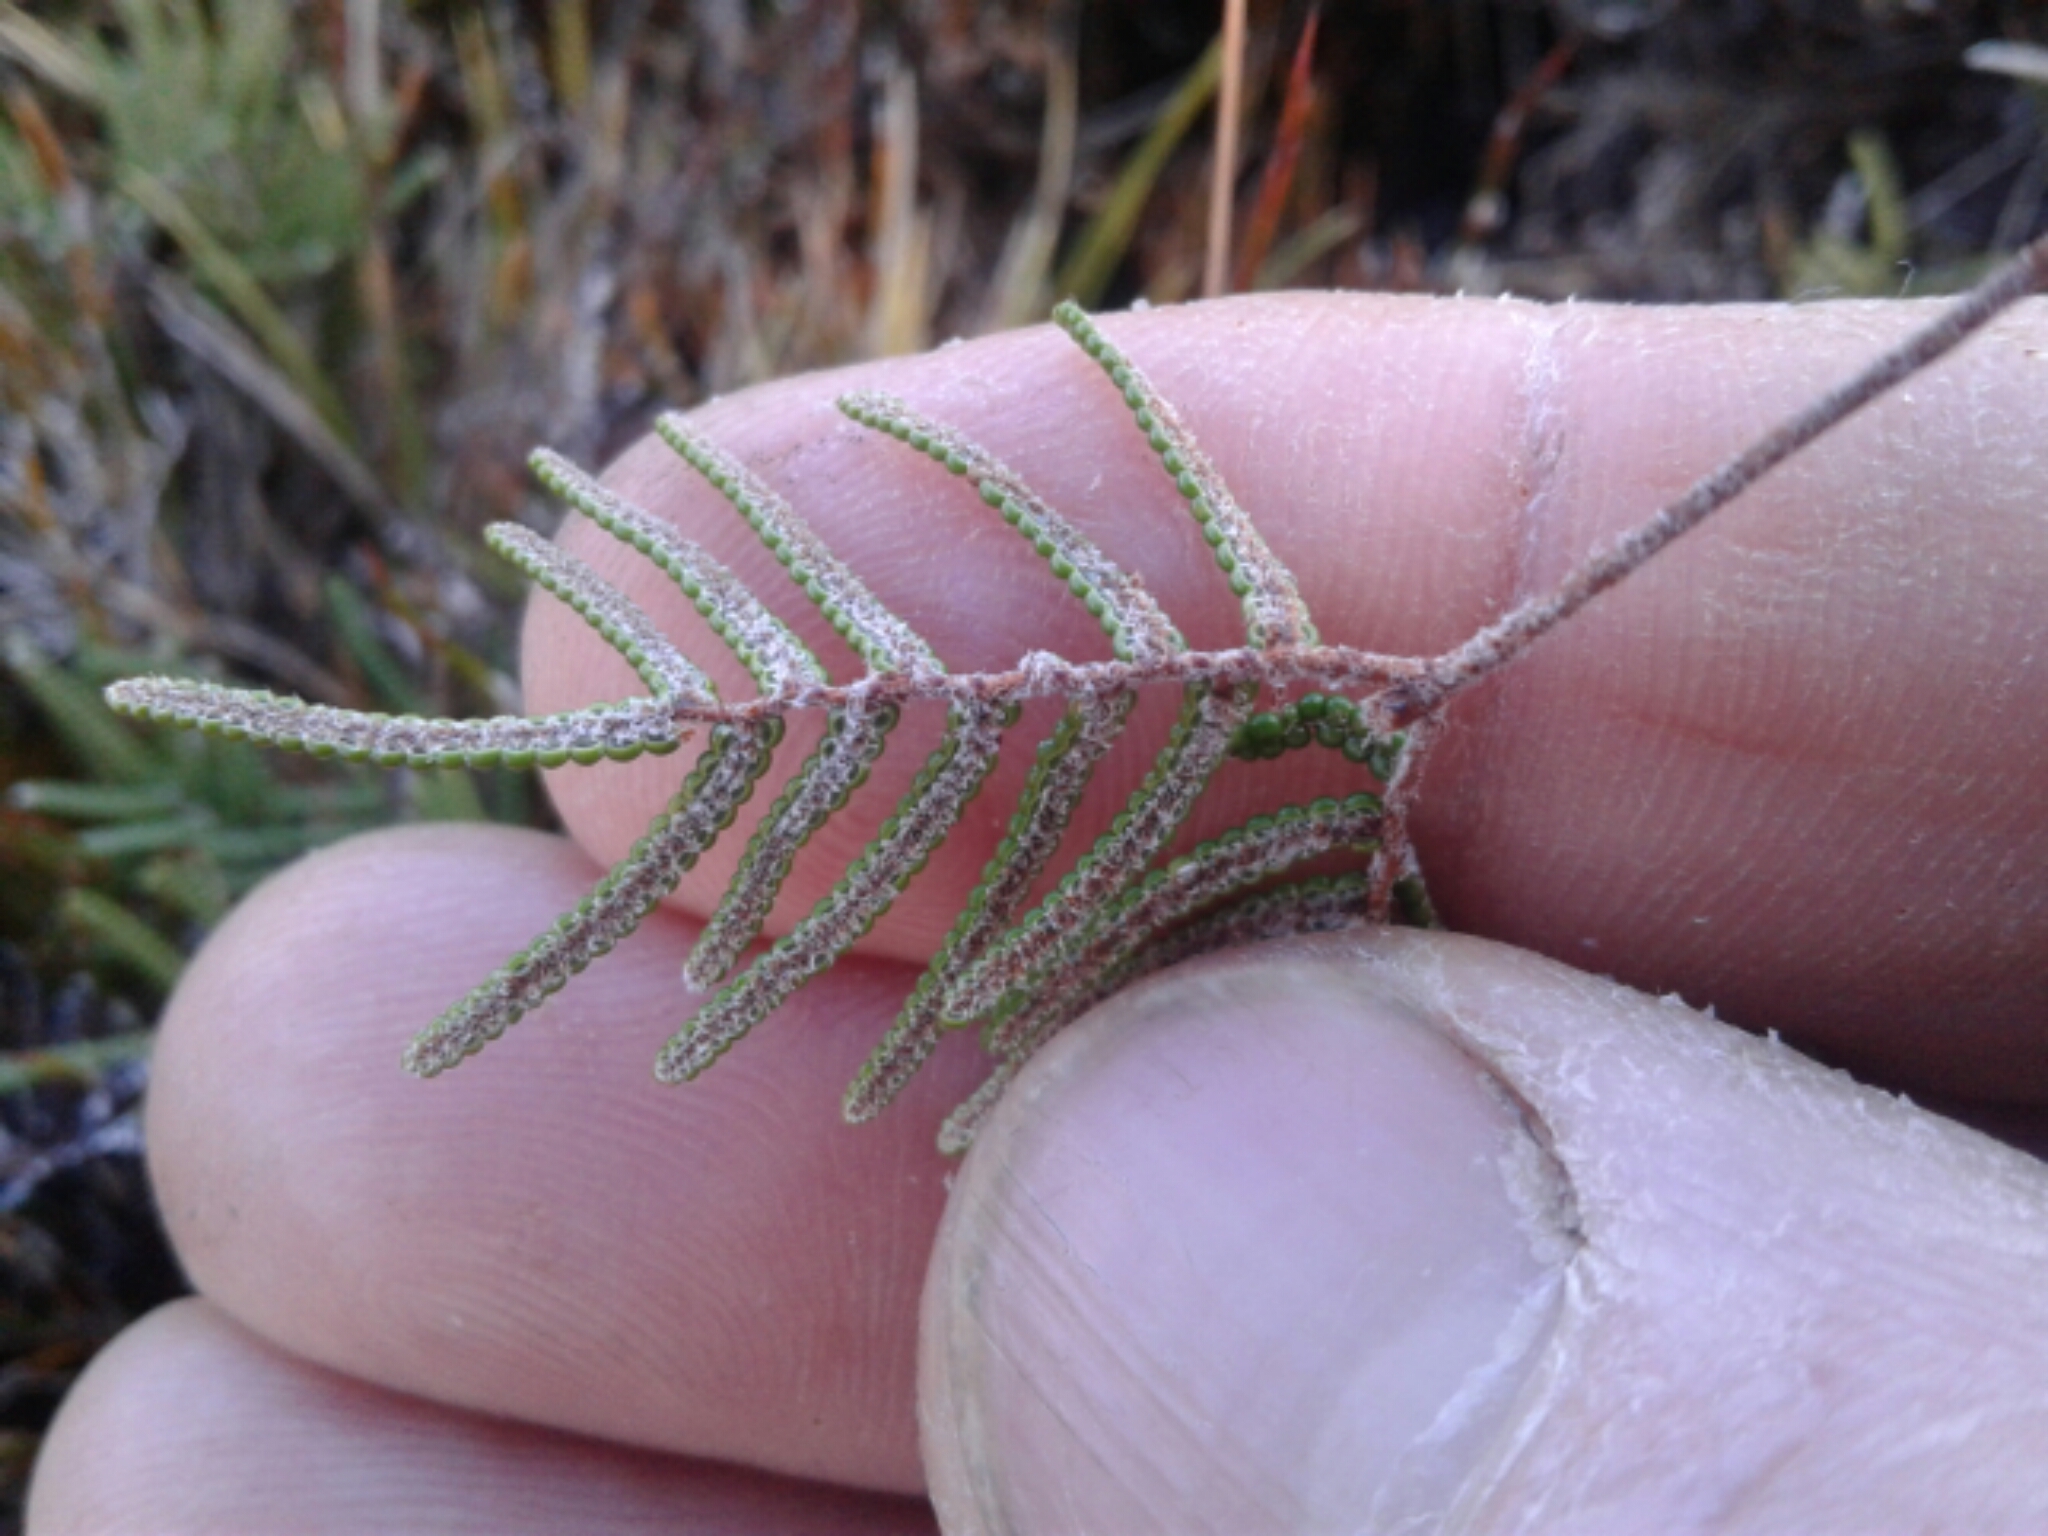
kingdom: Plantae
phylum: Tracheophyta
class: Polypodiopsida
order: Gleicheniales
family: Gleicheniaceae
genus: Gleichenia
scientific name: Gleichenia alpina
